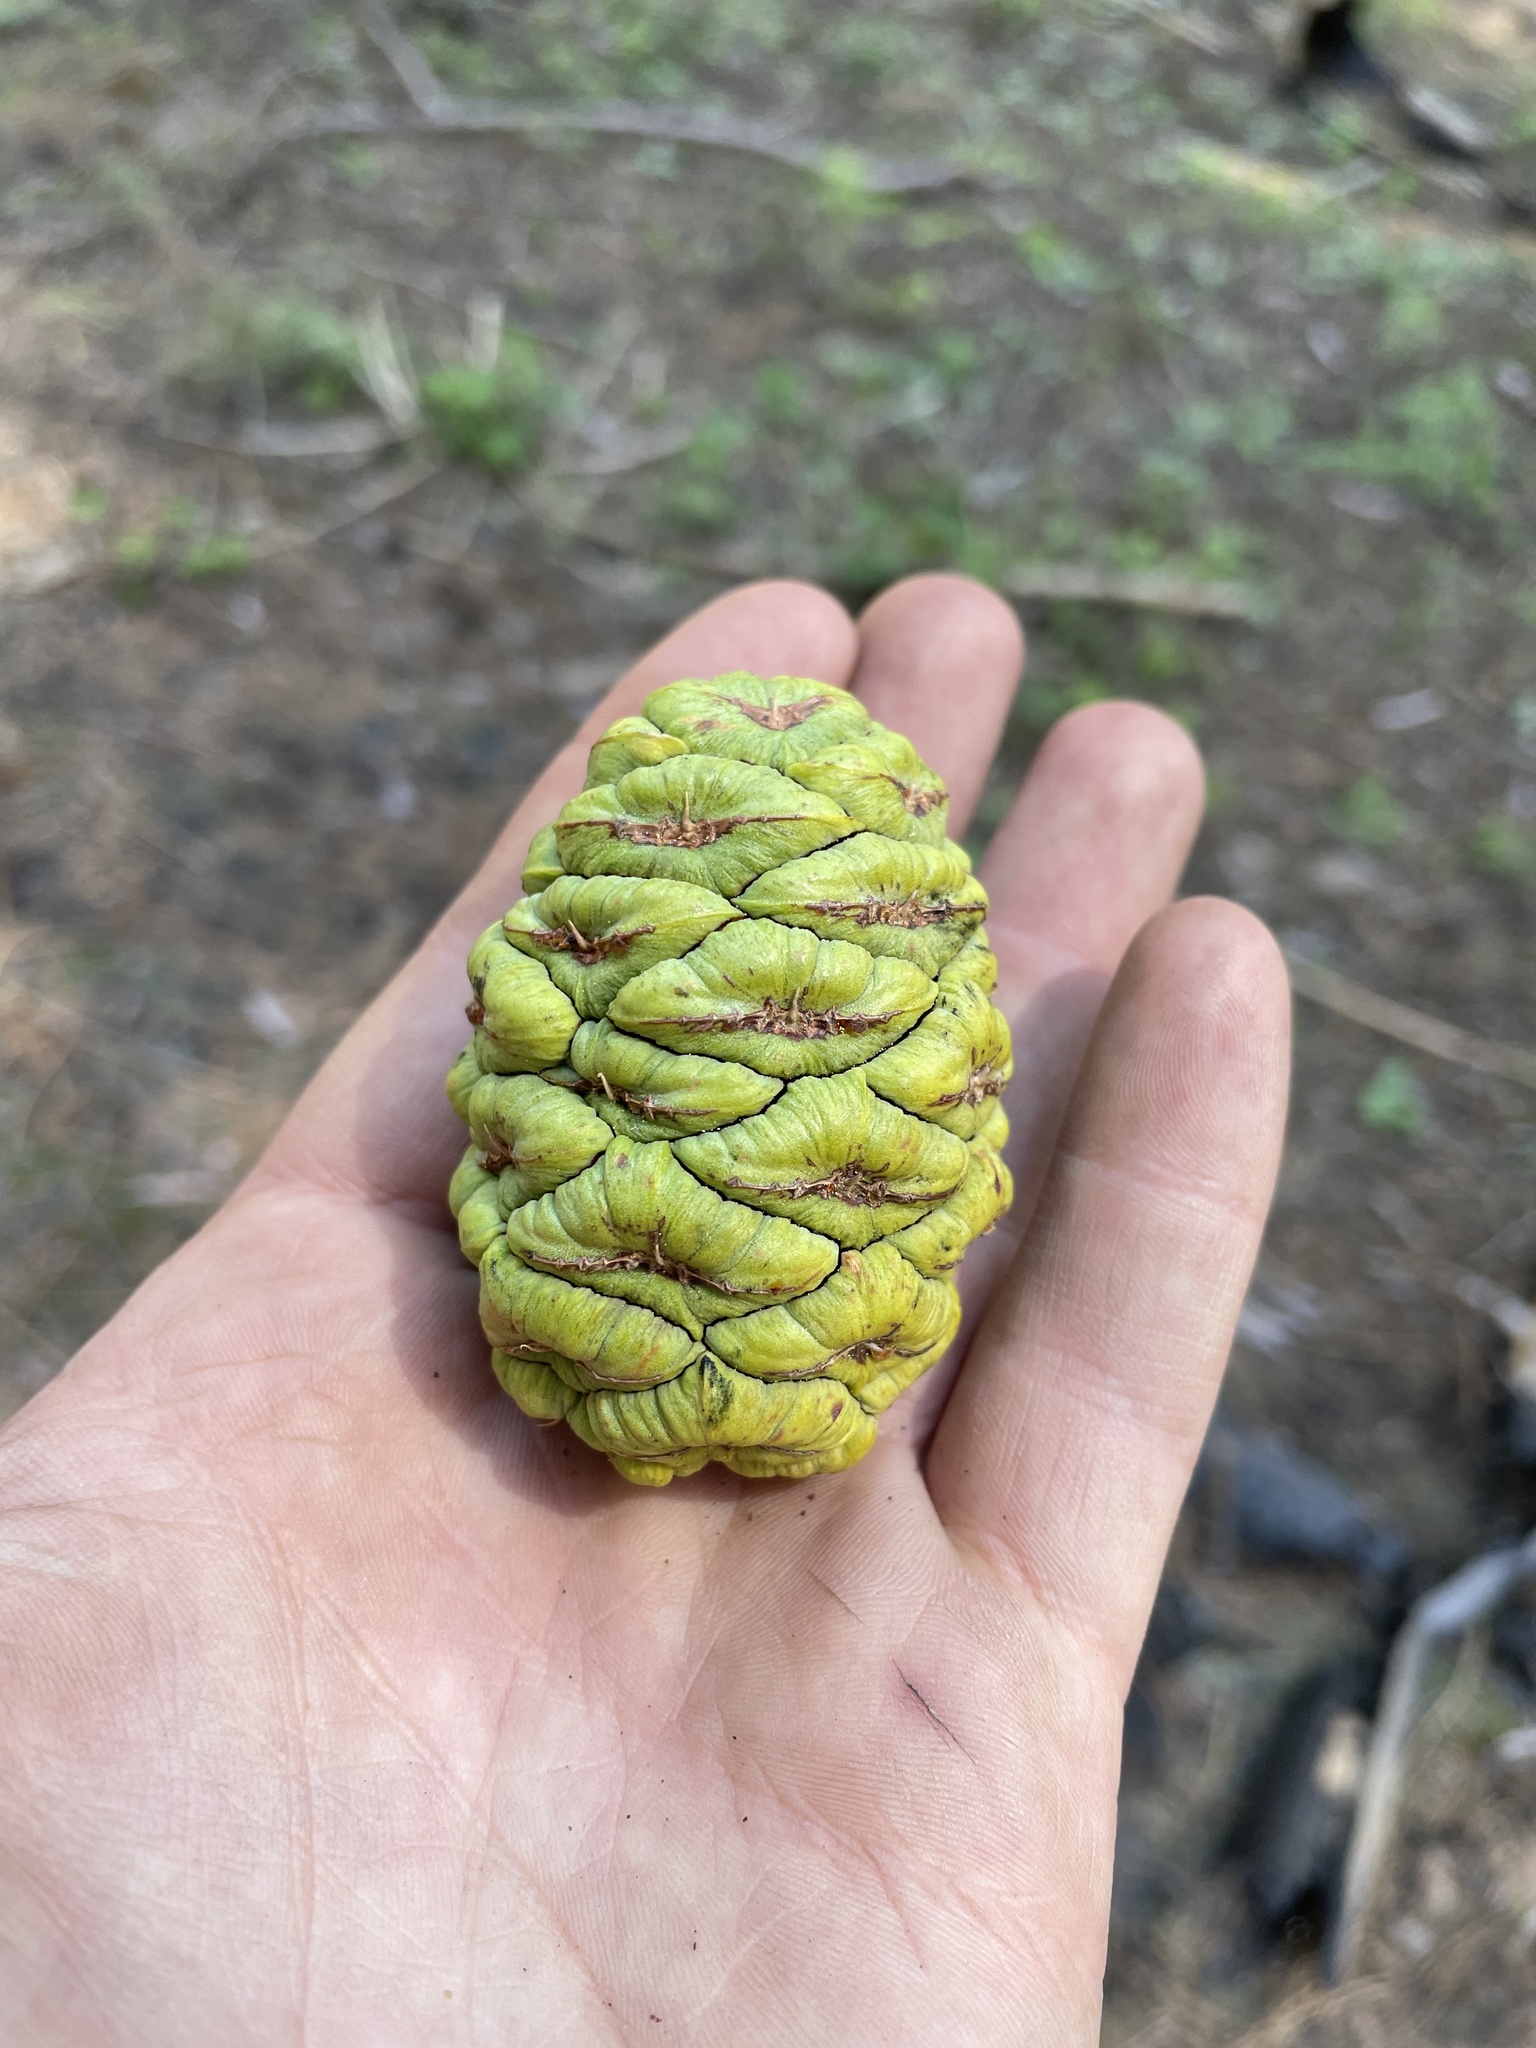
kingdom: Plantae
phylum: Tracheophyta
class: Pinopsida
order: Pinales
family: Cupressaceae
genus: Sequoiadendron
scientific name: Sequoiadendron giganteum
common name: Wellingtonia
